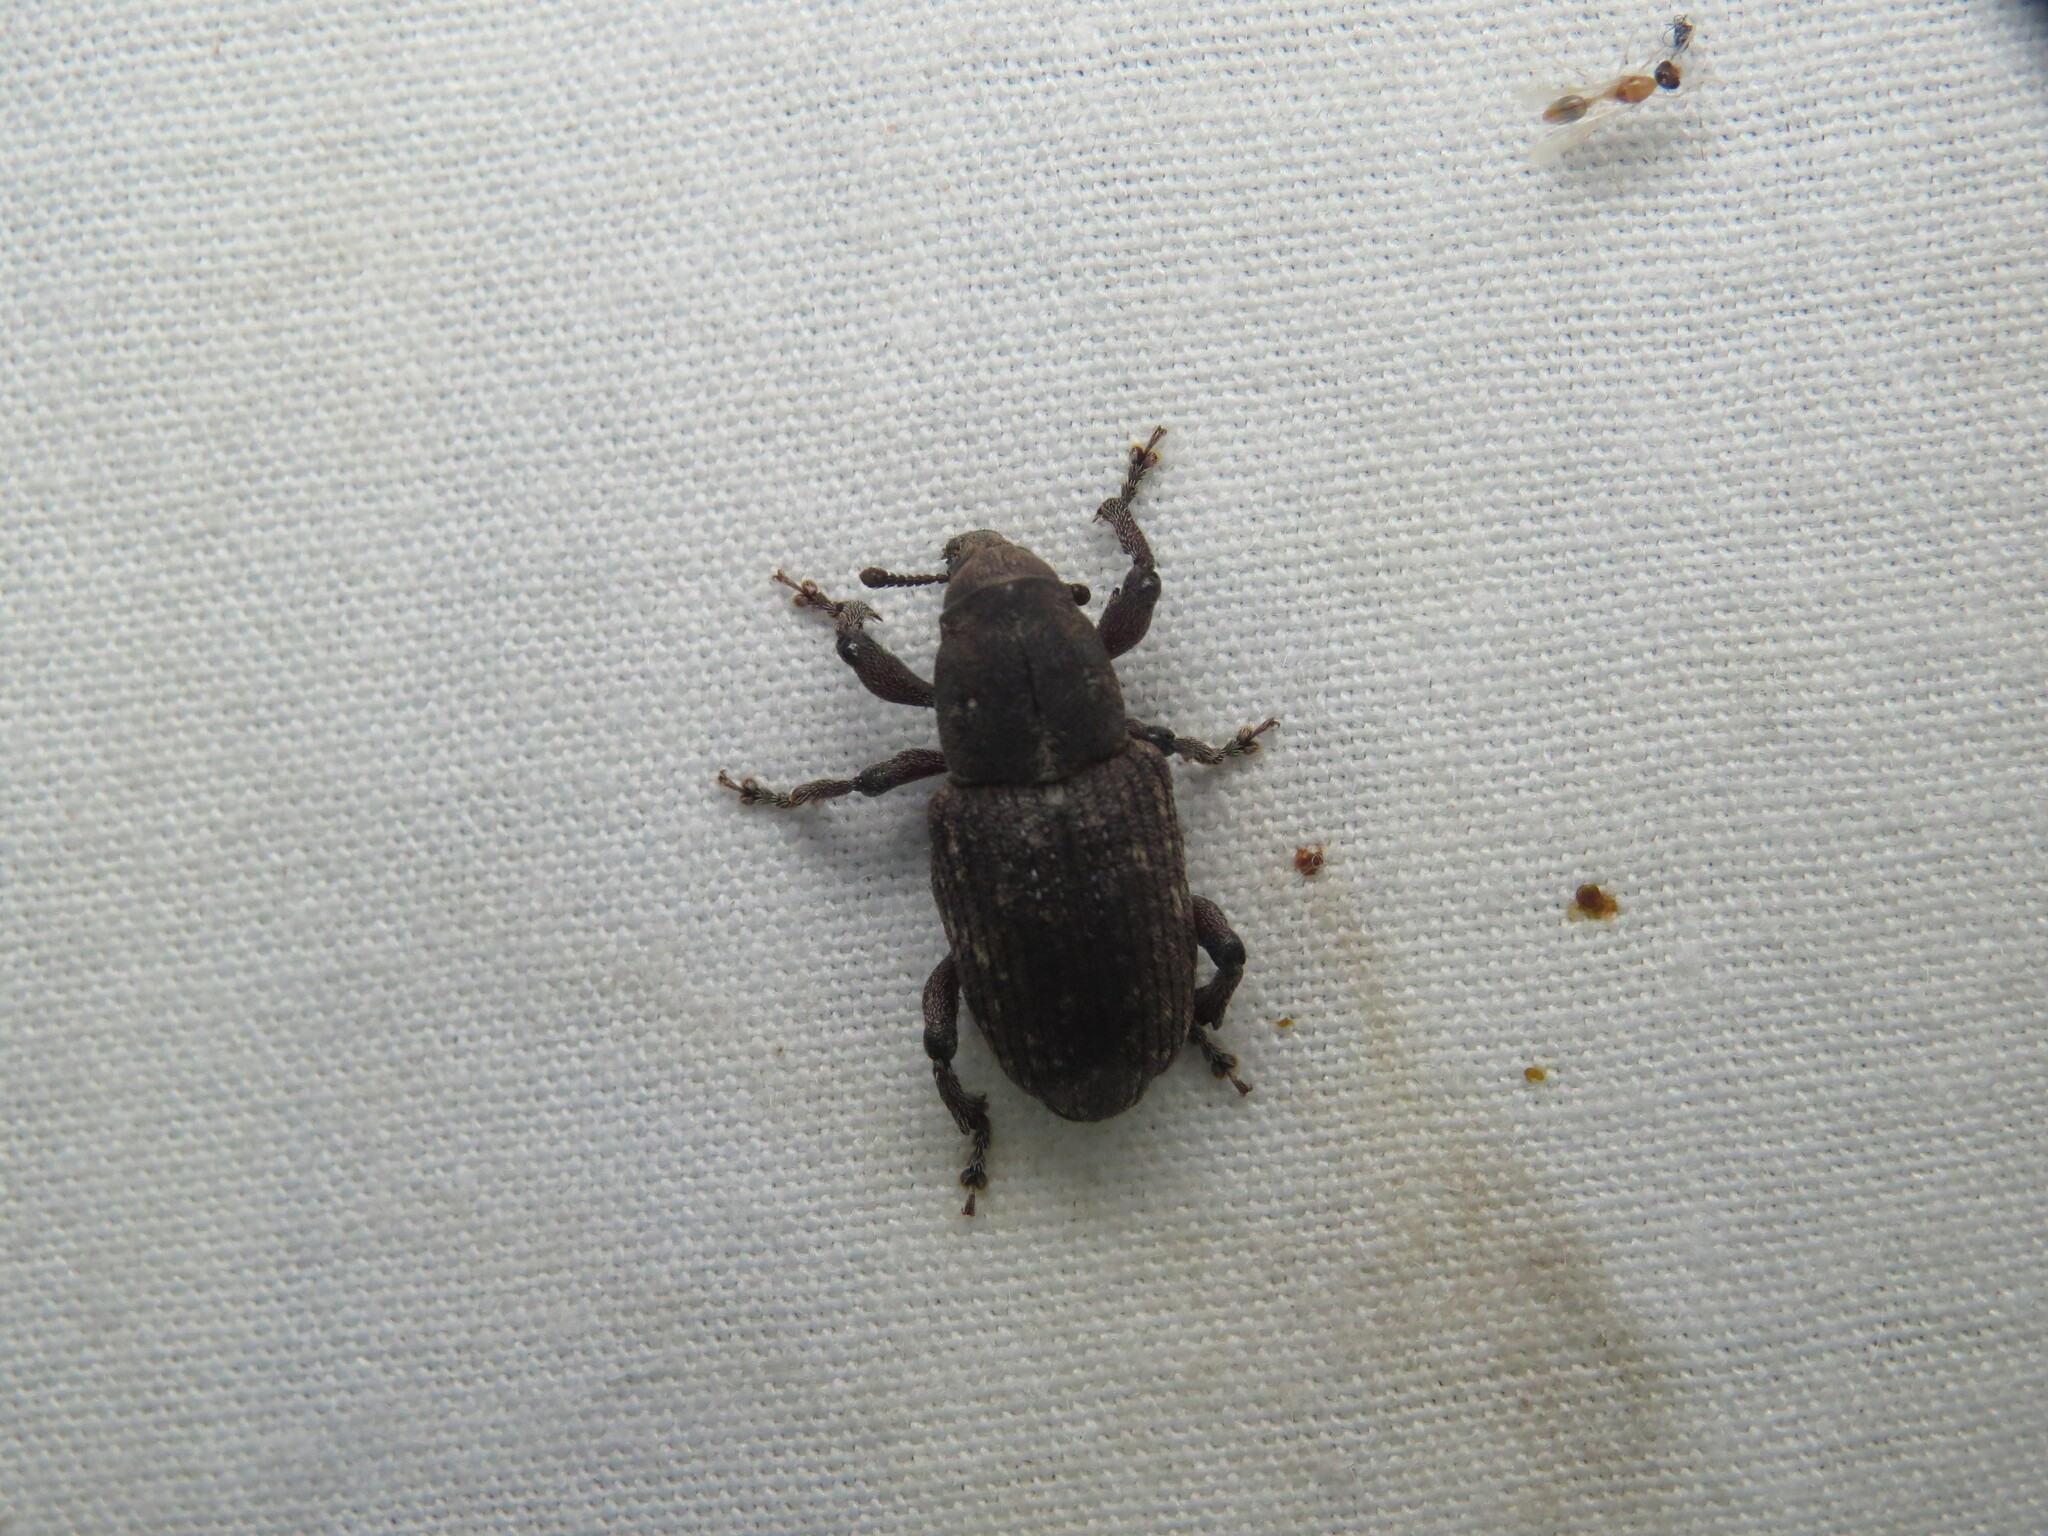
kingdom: Animalia
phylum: Arthropoda
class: Insecta
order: Coleoptera
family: Curculionidae
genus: Pachylobius
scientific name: Pachylobius picivorus
